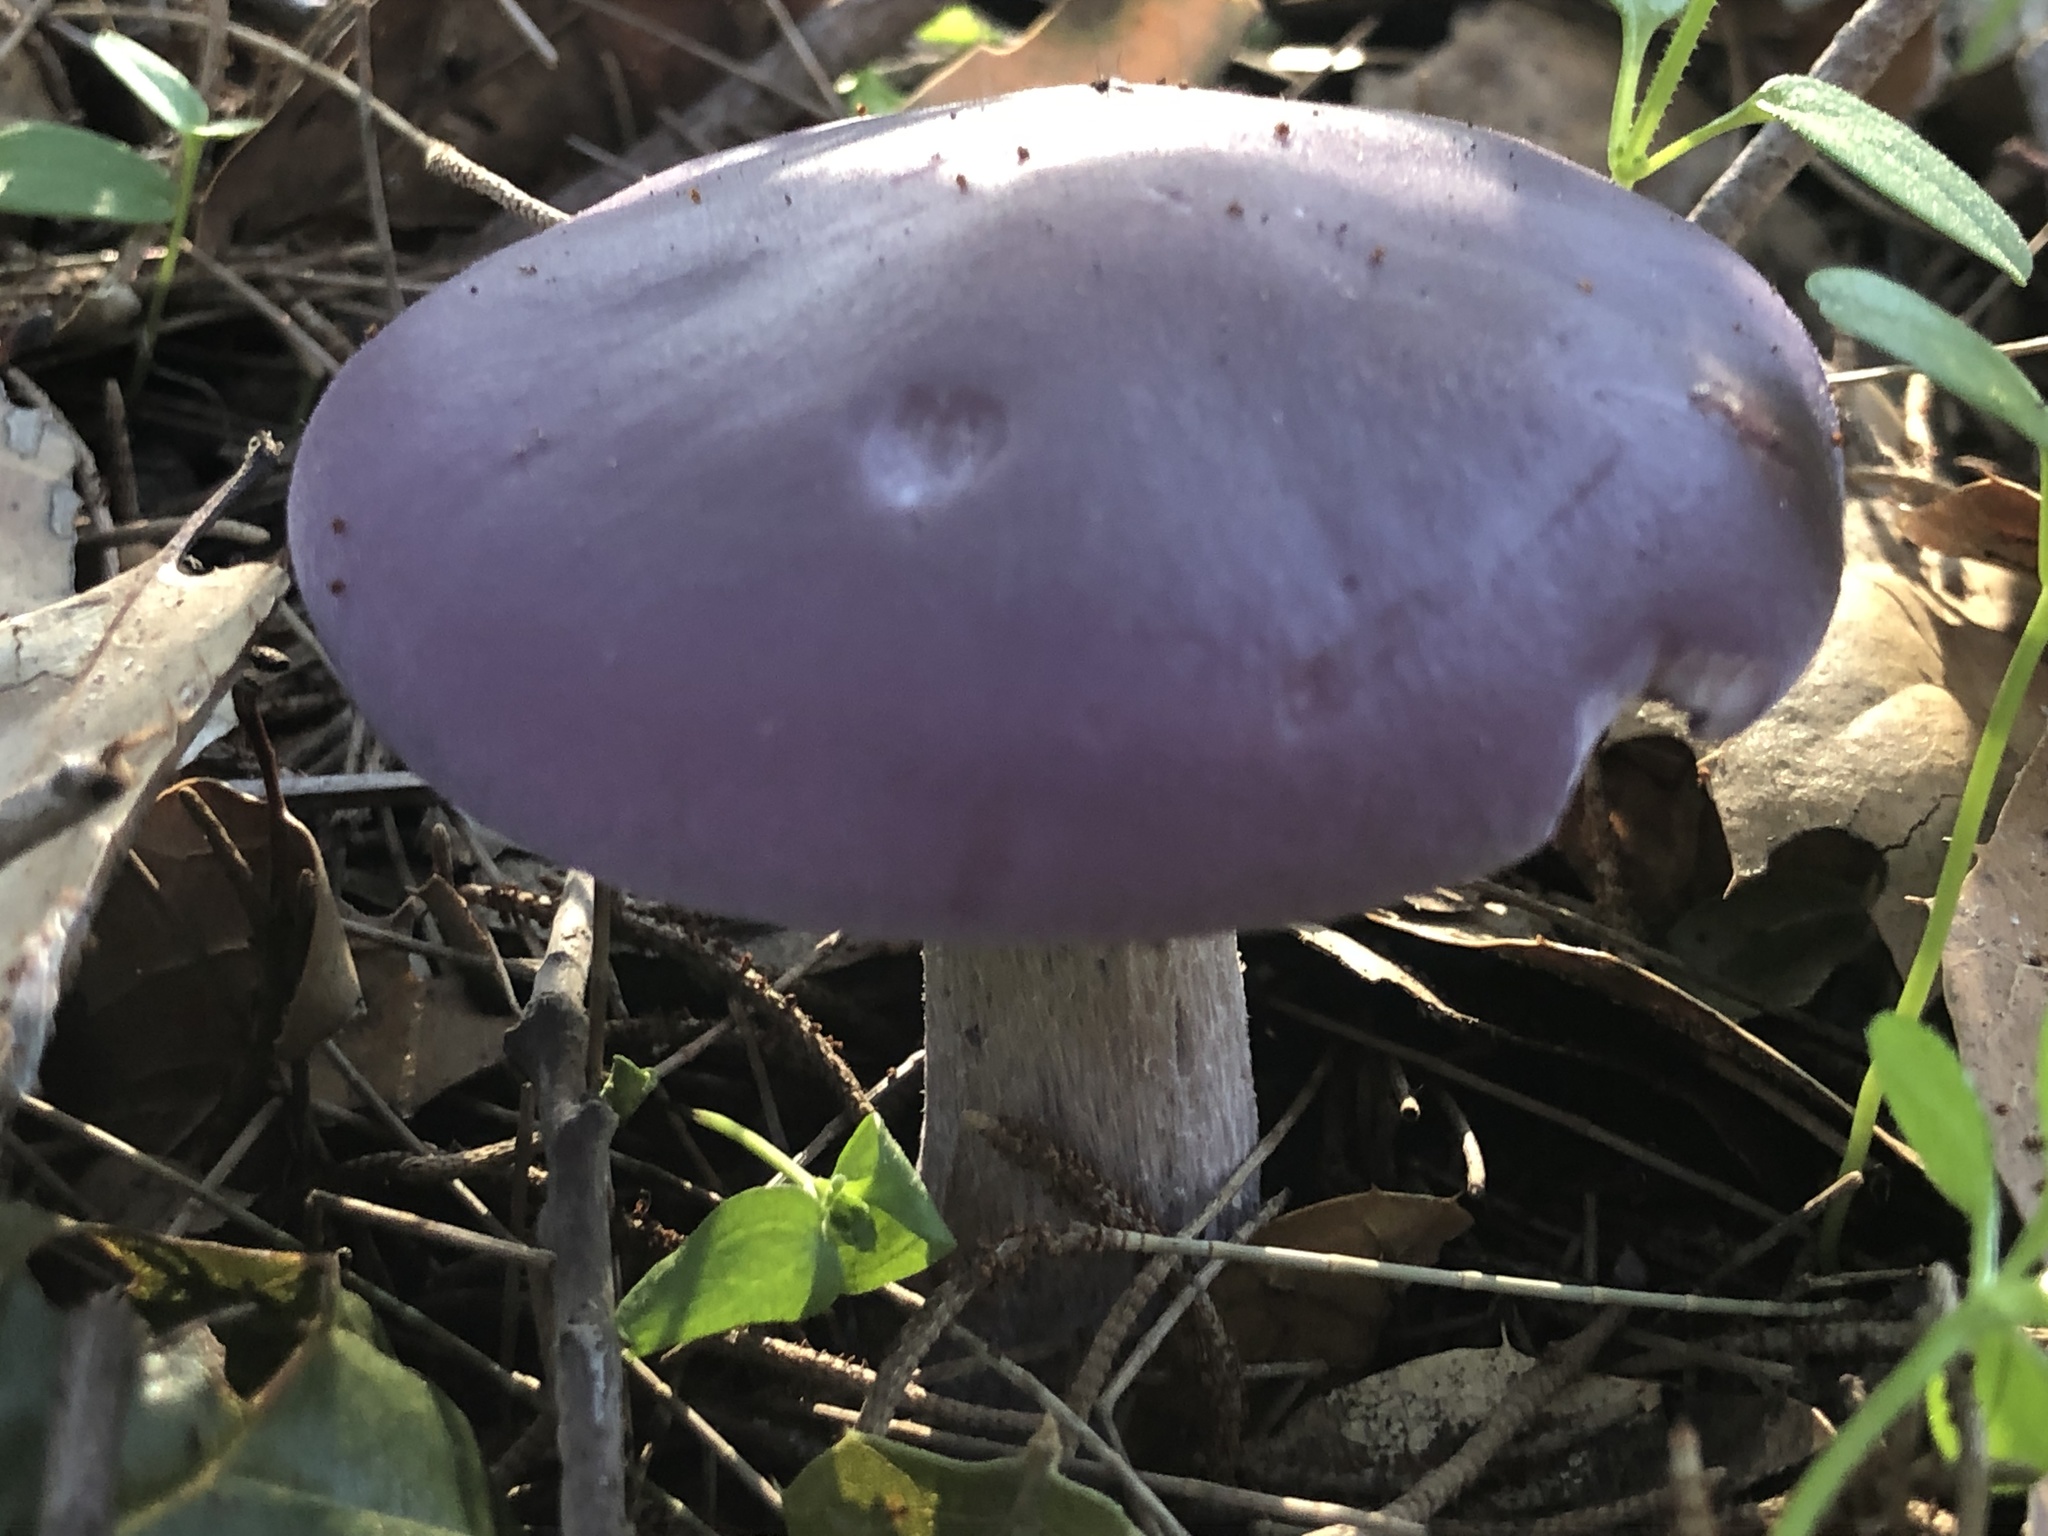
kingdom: Fungi
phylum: Basidiomycota
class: Agaricomycetes
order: Agaricales
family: Tricholomataceae
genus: Collybia
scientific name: Collybia
